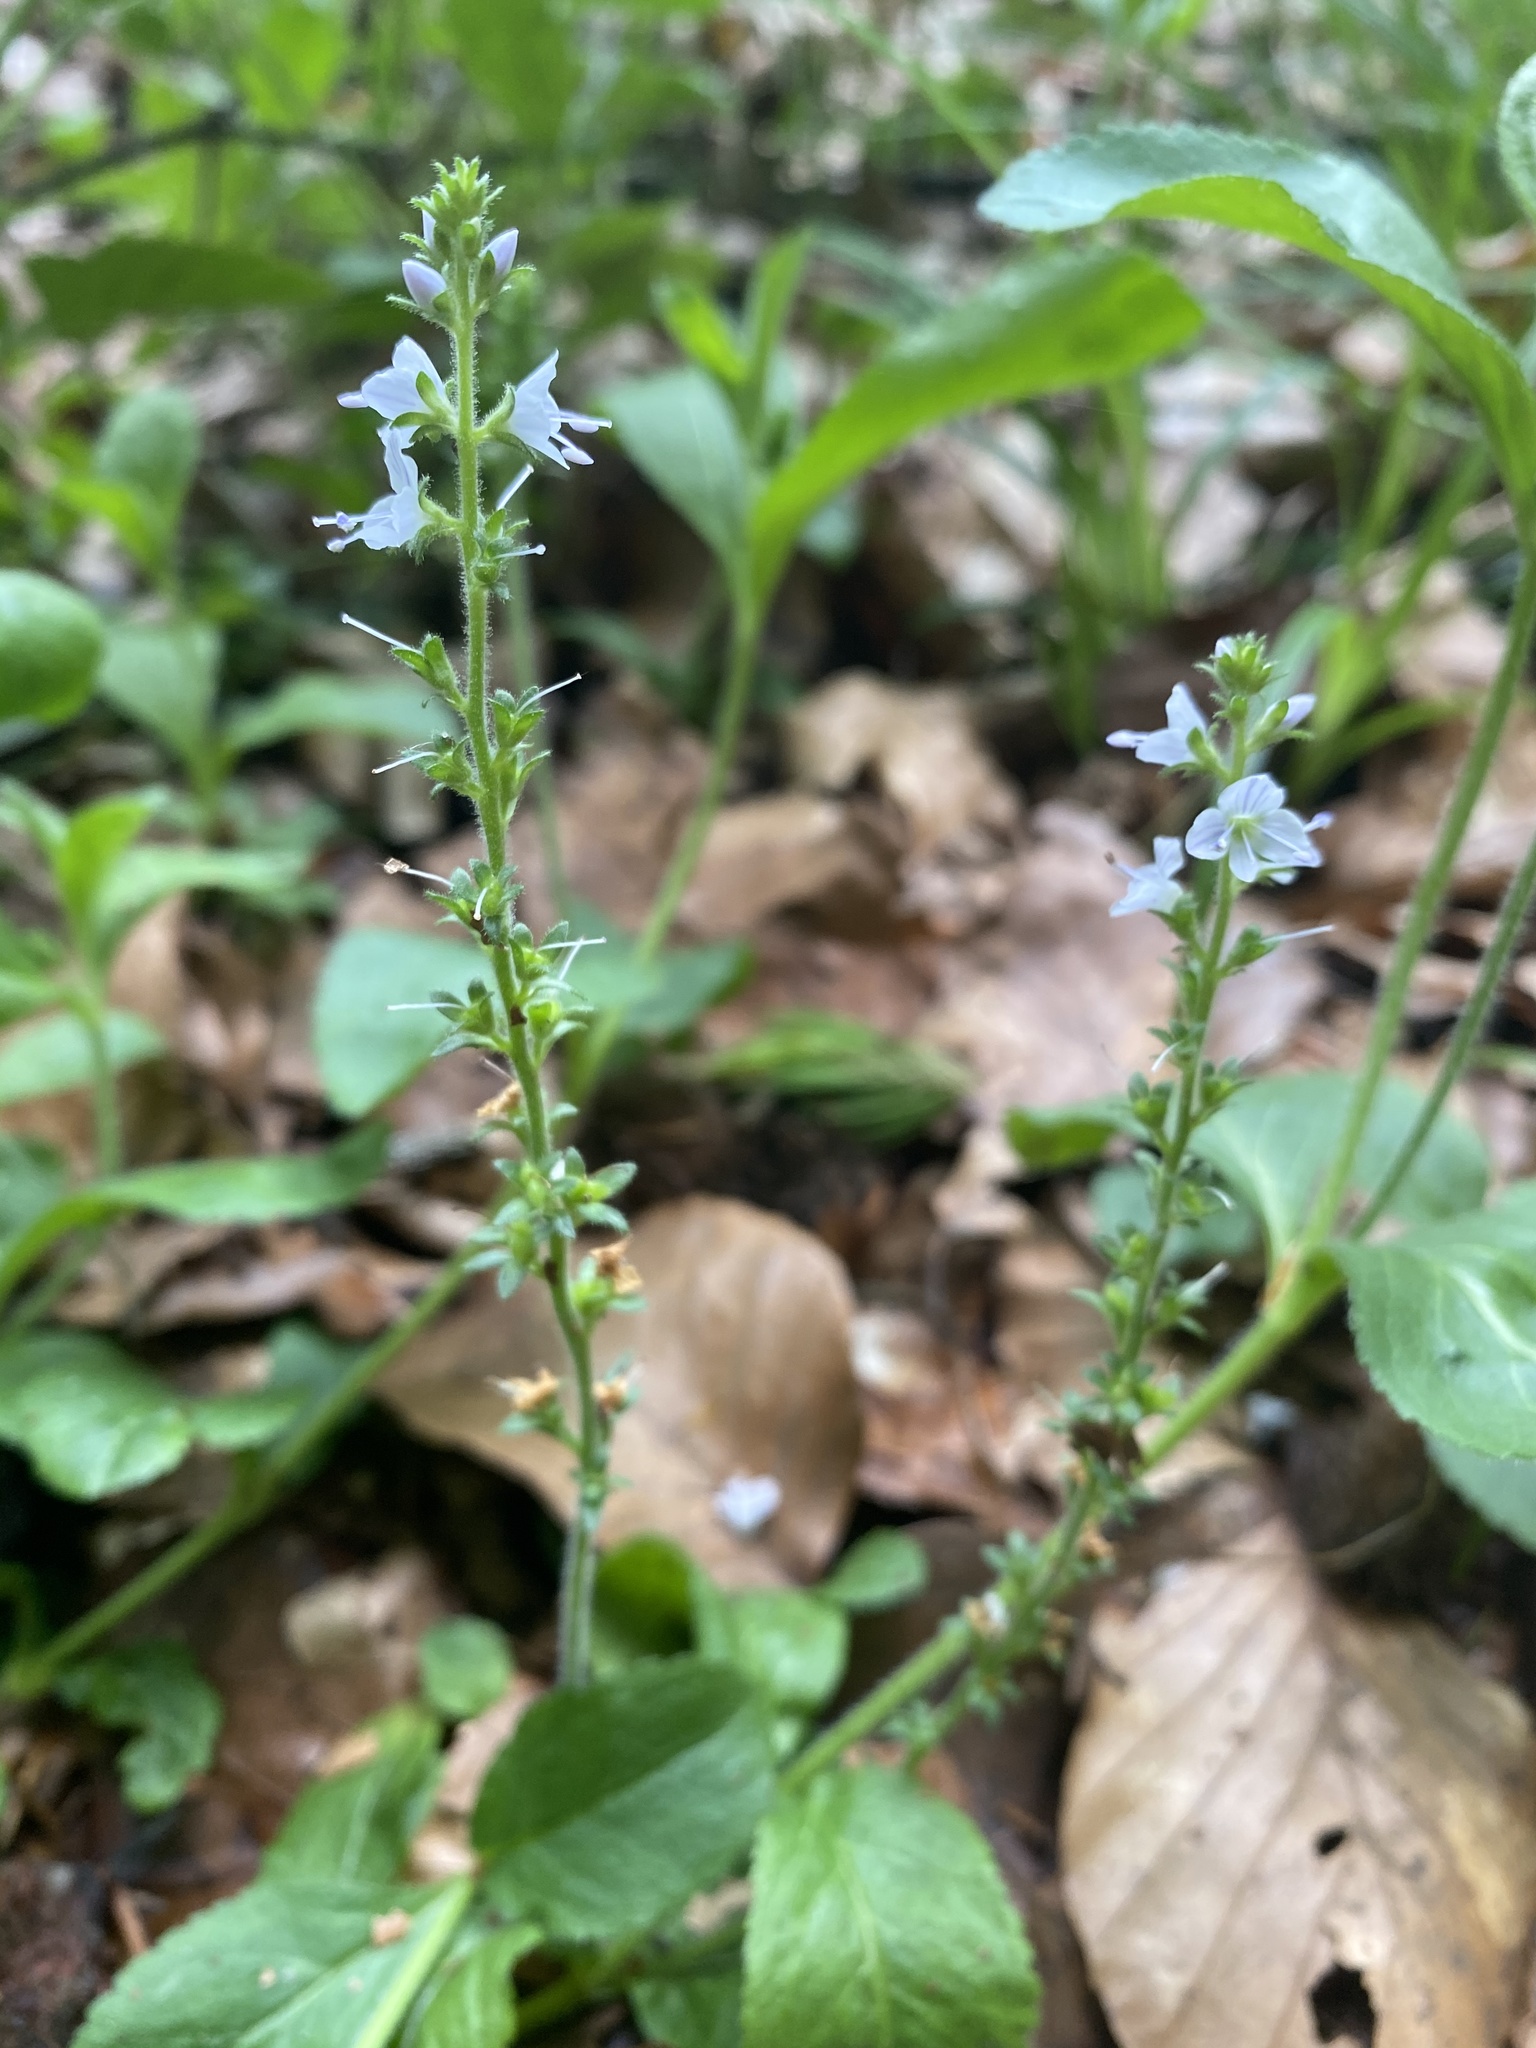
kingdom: Plantae
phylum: Tracheophyta
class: Magnoliopsida
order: Lamiales
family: Plantaginaceae
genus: Veronica
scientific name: Veronica officinalis
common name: Common speedwell
